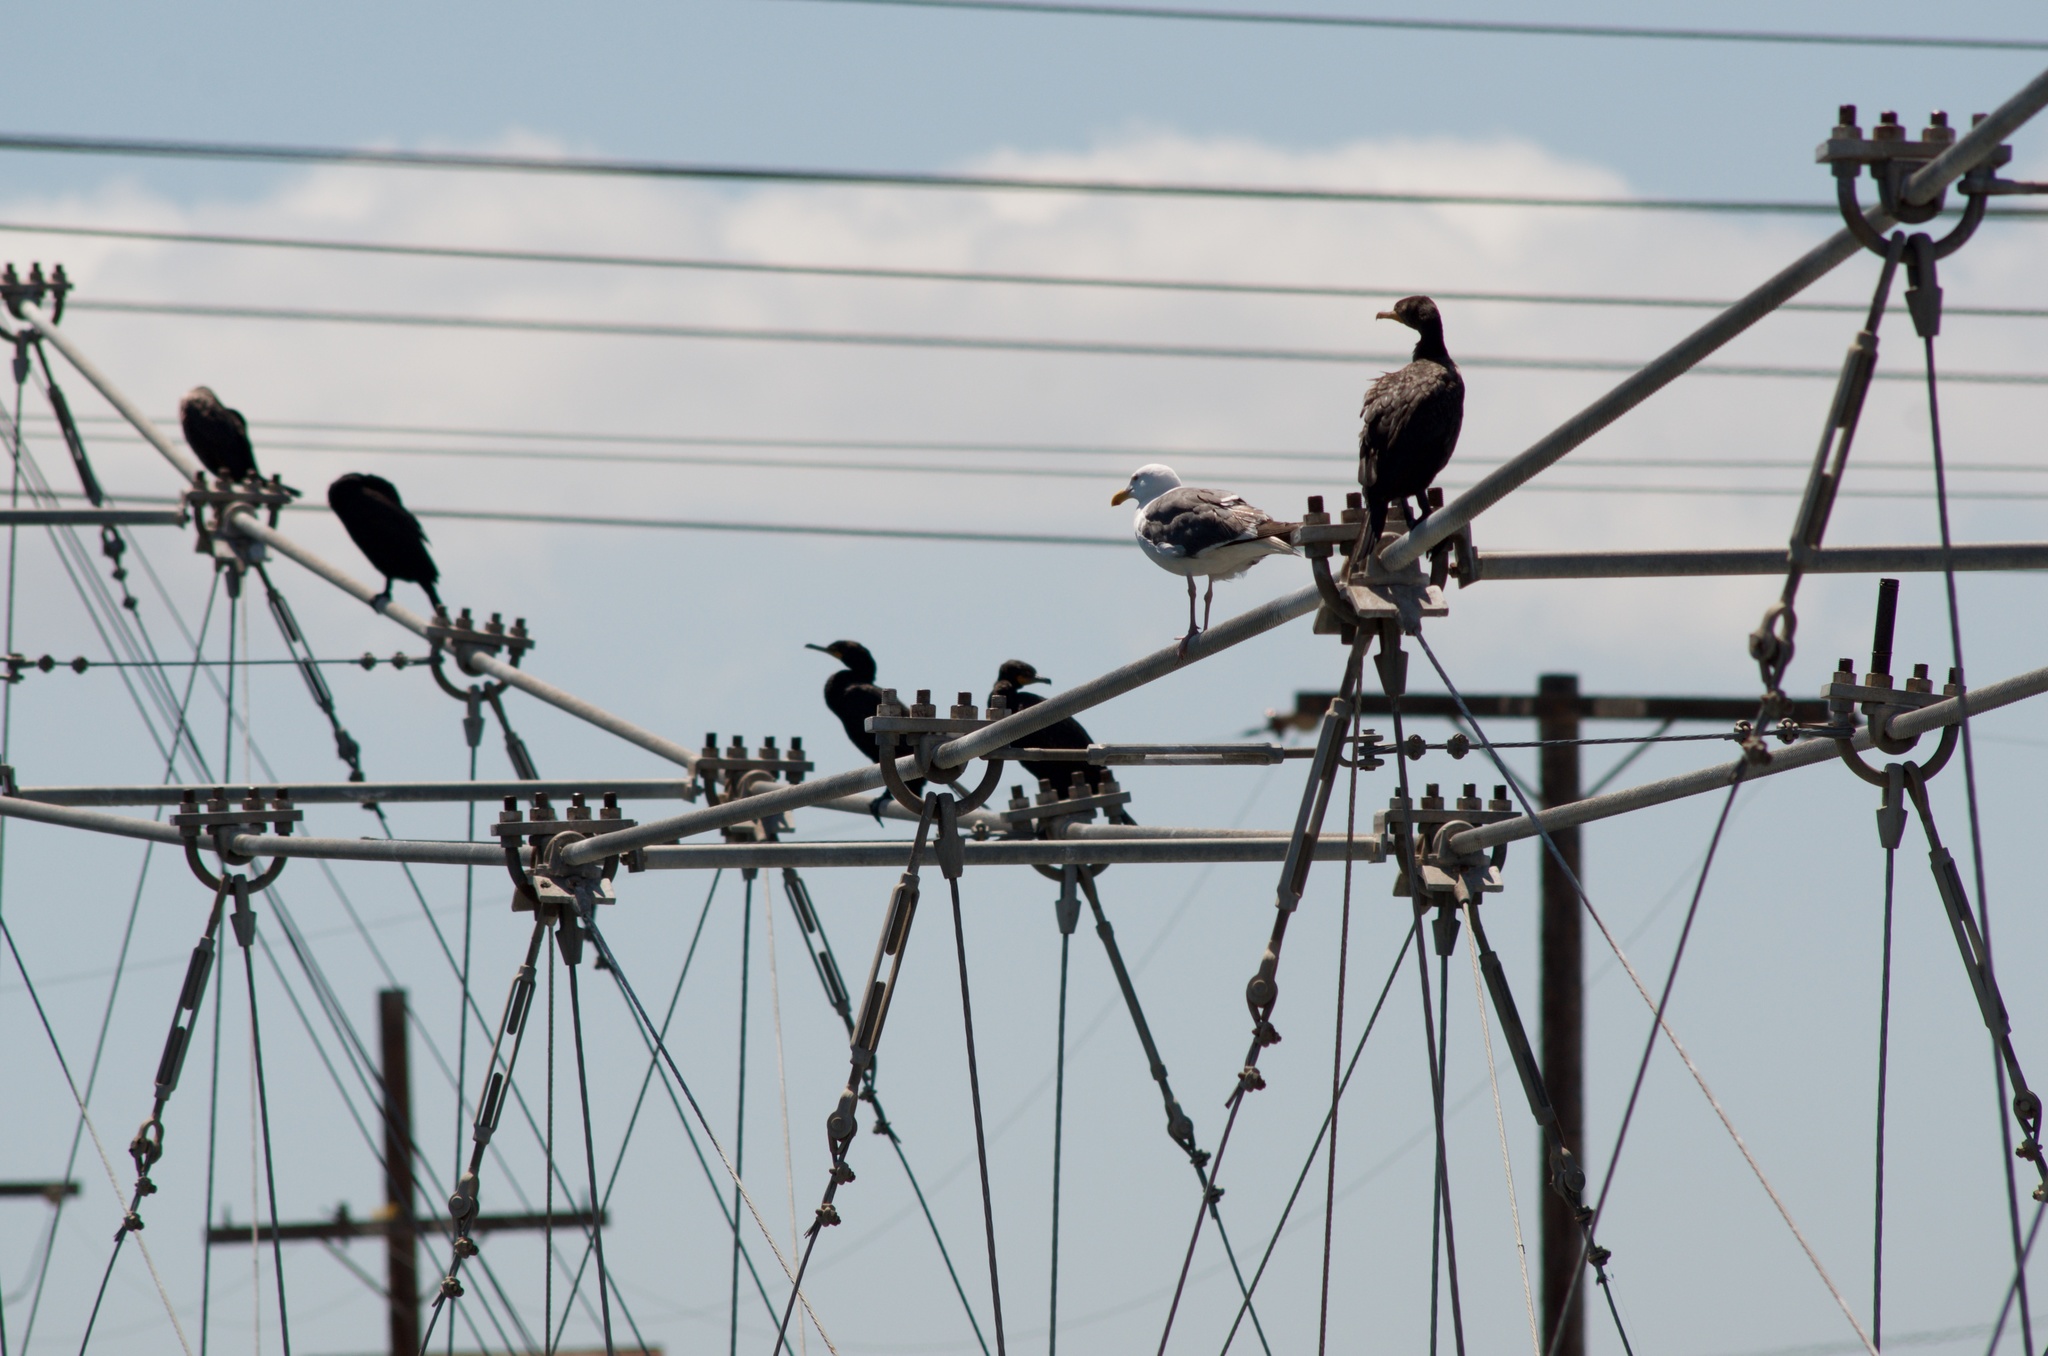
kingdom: Animalia
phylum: Chordata
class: Aves
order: Suliformes
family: Phalacrocoracidae
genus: Phalacrocorax
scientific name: Phalacrocorax auritus
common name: Double-crested cormorant
